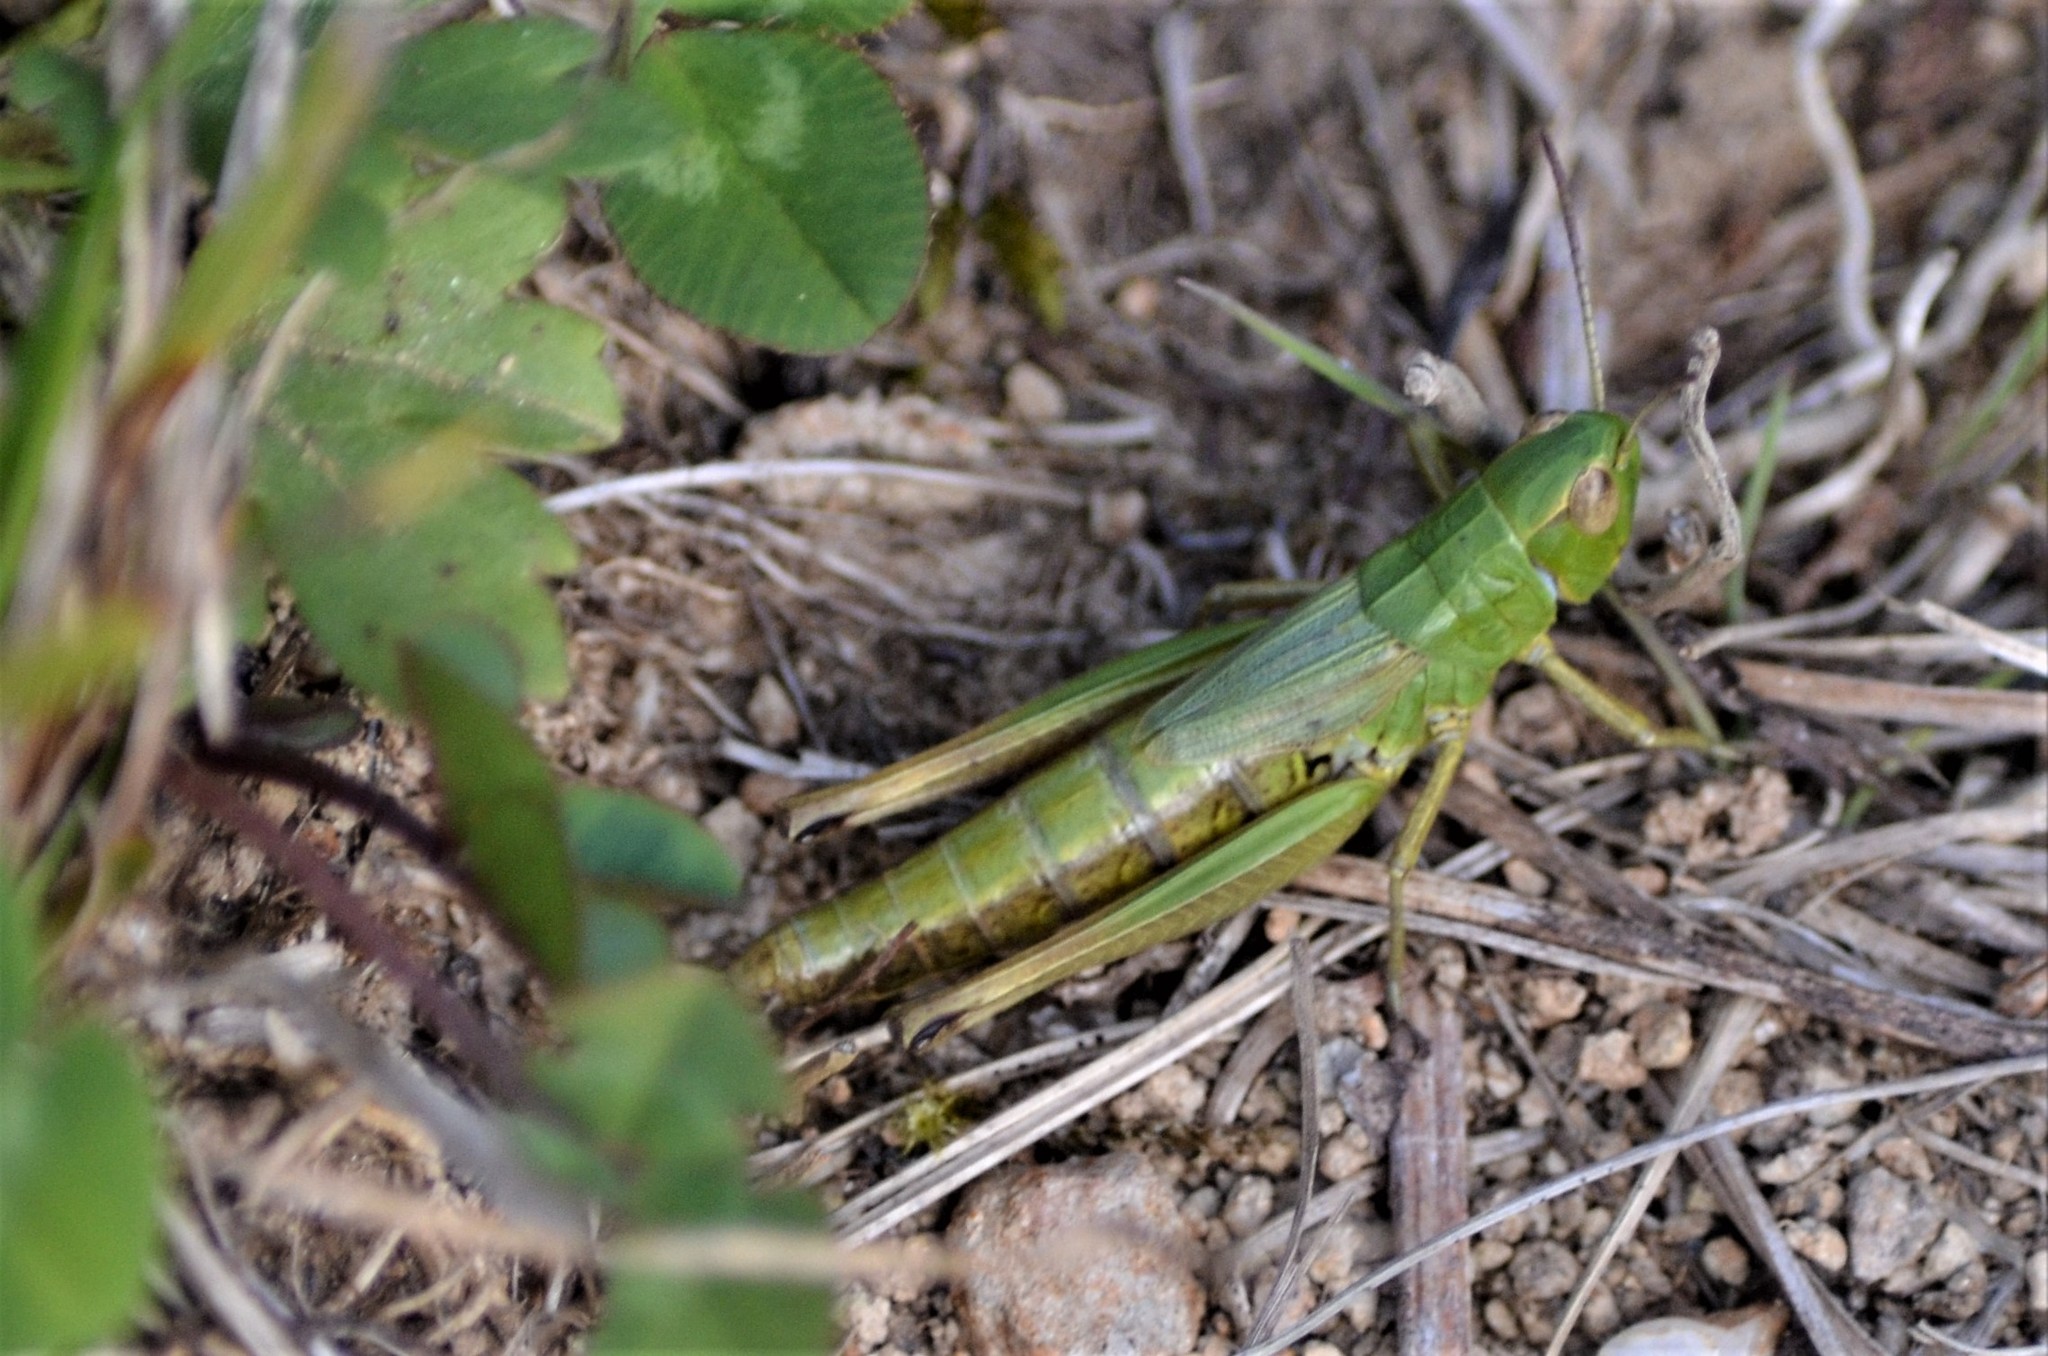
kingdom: Animalia
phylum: Arthropoda
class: Insecta
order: Orthoptera
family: Acrididae
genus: Pseudochorthippus
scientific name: Pseudochorthippus parallelus
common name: Meadow grasshopper
